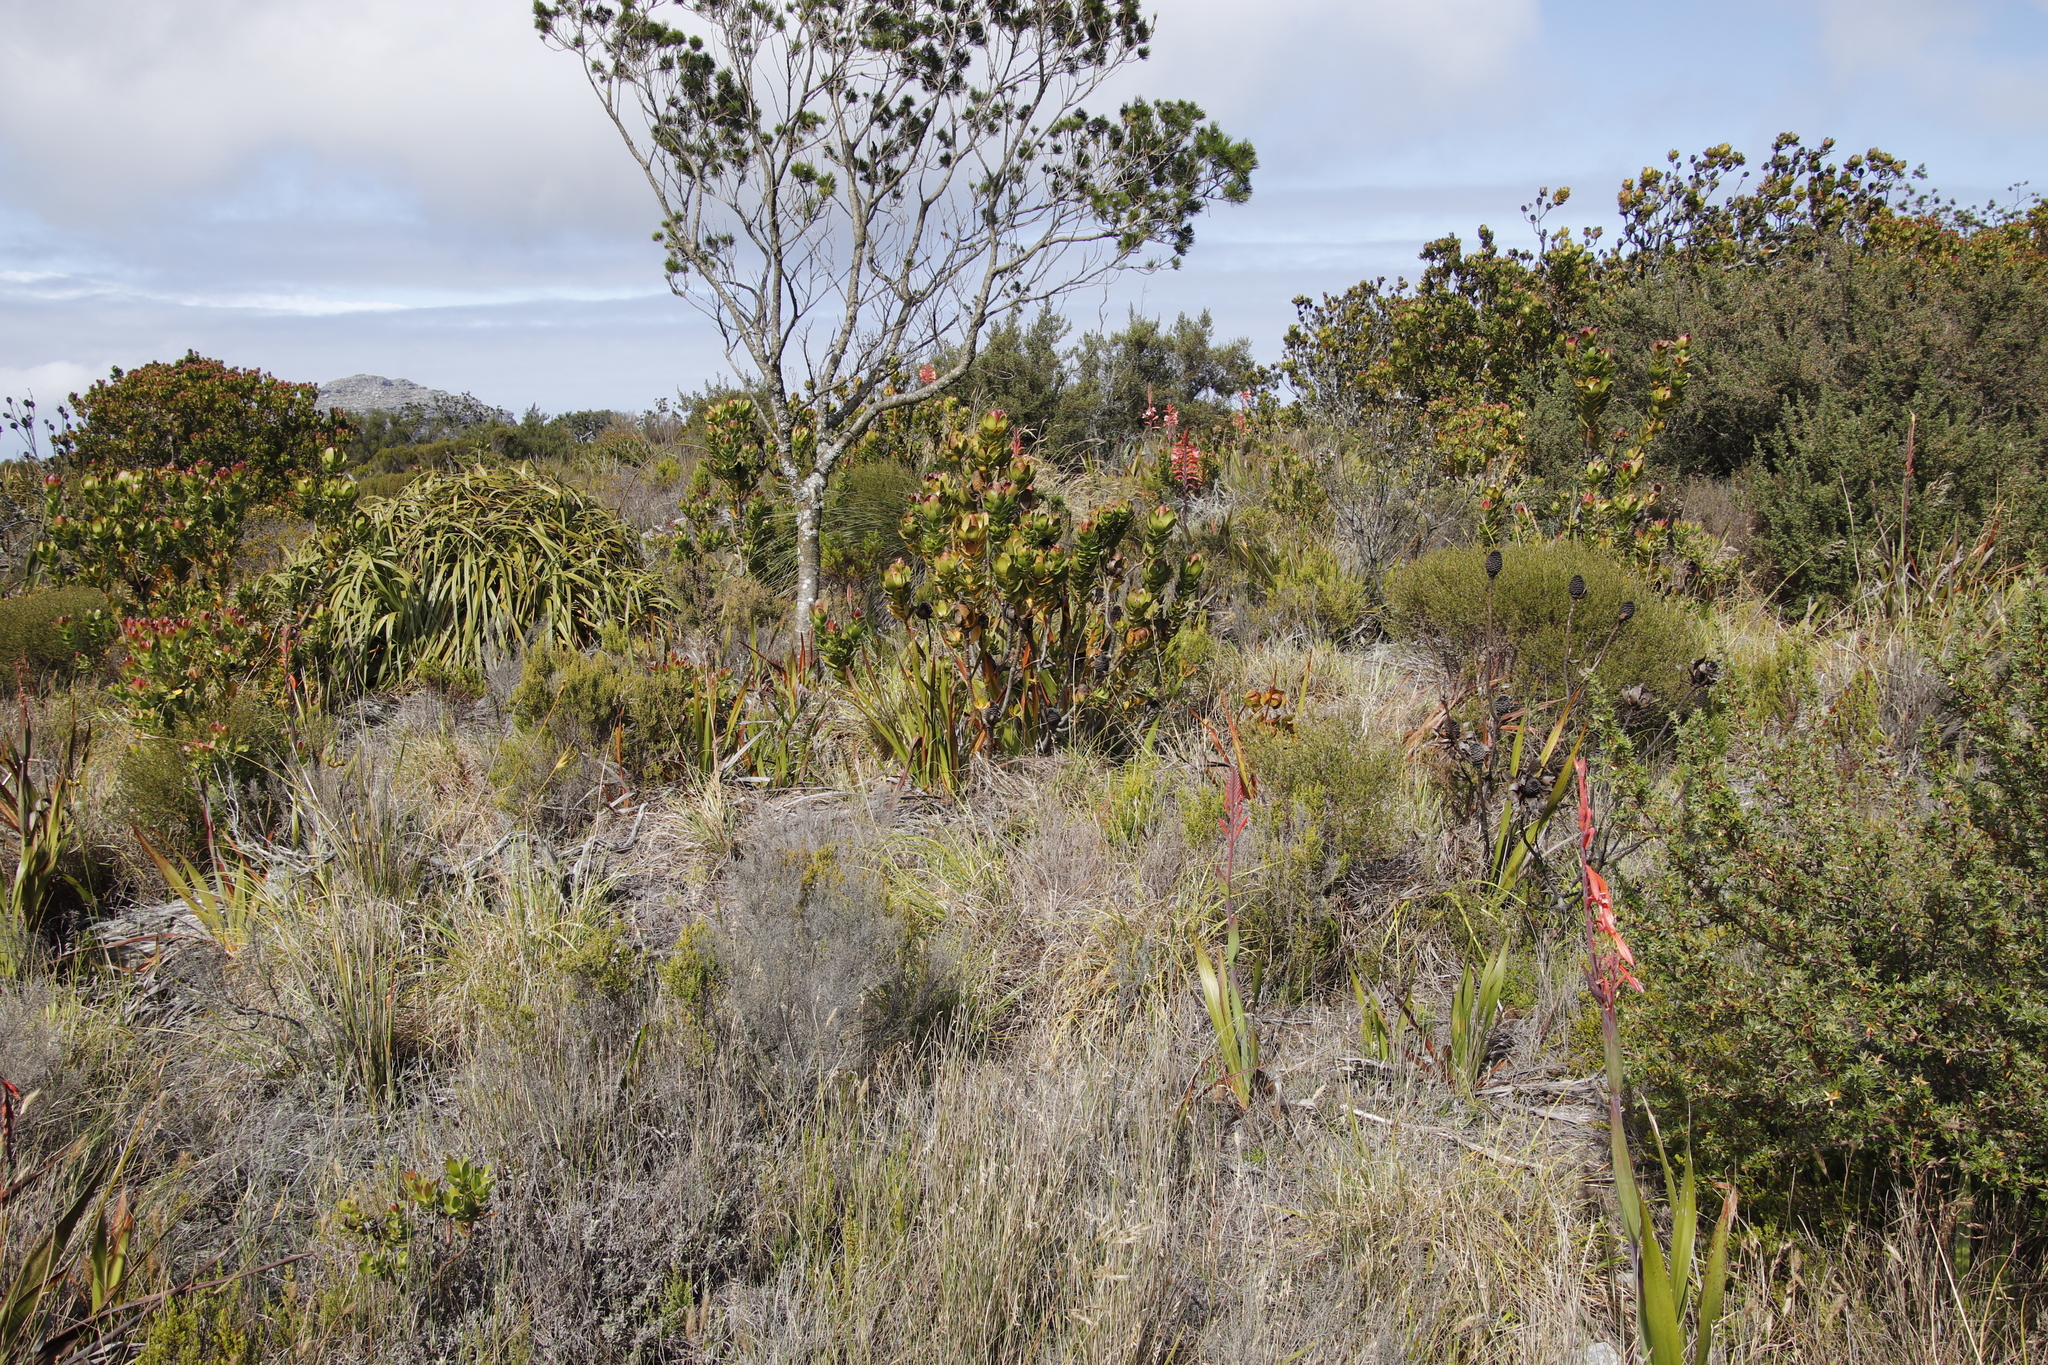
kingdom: Plantae
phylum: Tracheophyta
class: Magnoliopsida
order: Proteales
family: Proteaceae
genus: Leucadendron
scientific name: Leucadendron strobilinum
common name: Mountain rose
